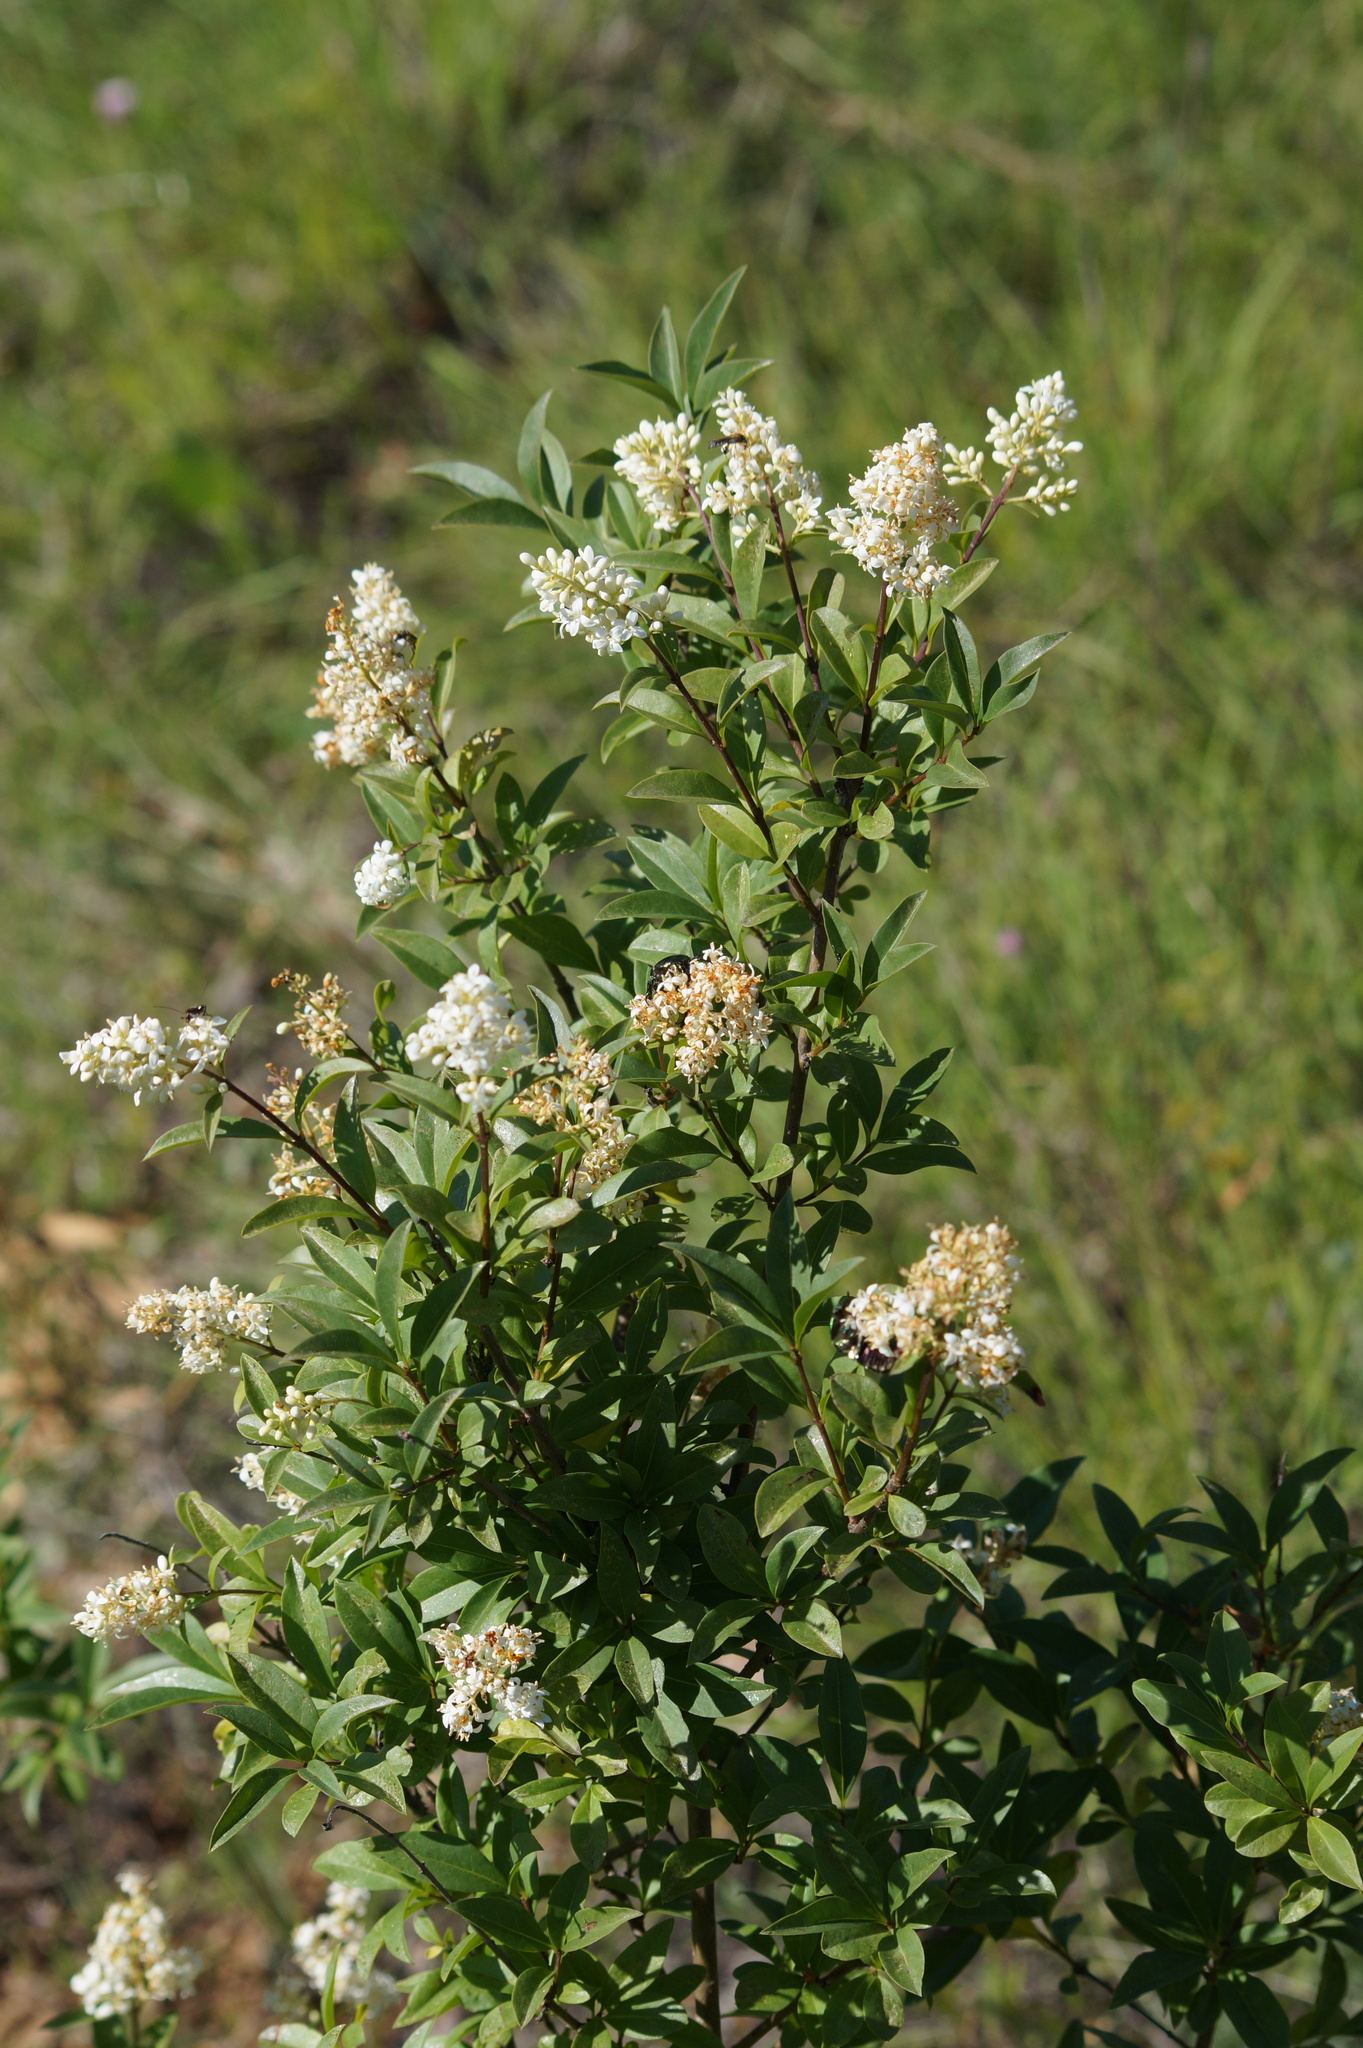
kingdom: Plantae
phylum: Tracheophyta
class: Magnoliopsida
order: Lamiales
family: Oleaceae
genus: Ligustrum
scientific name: Ligustrum vulgare
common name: Wild privet
